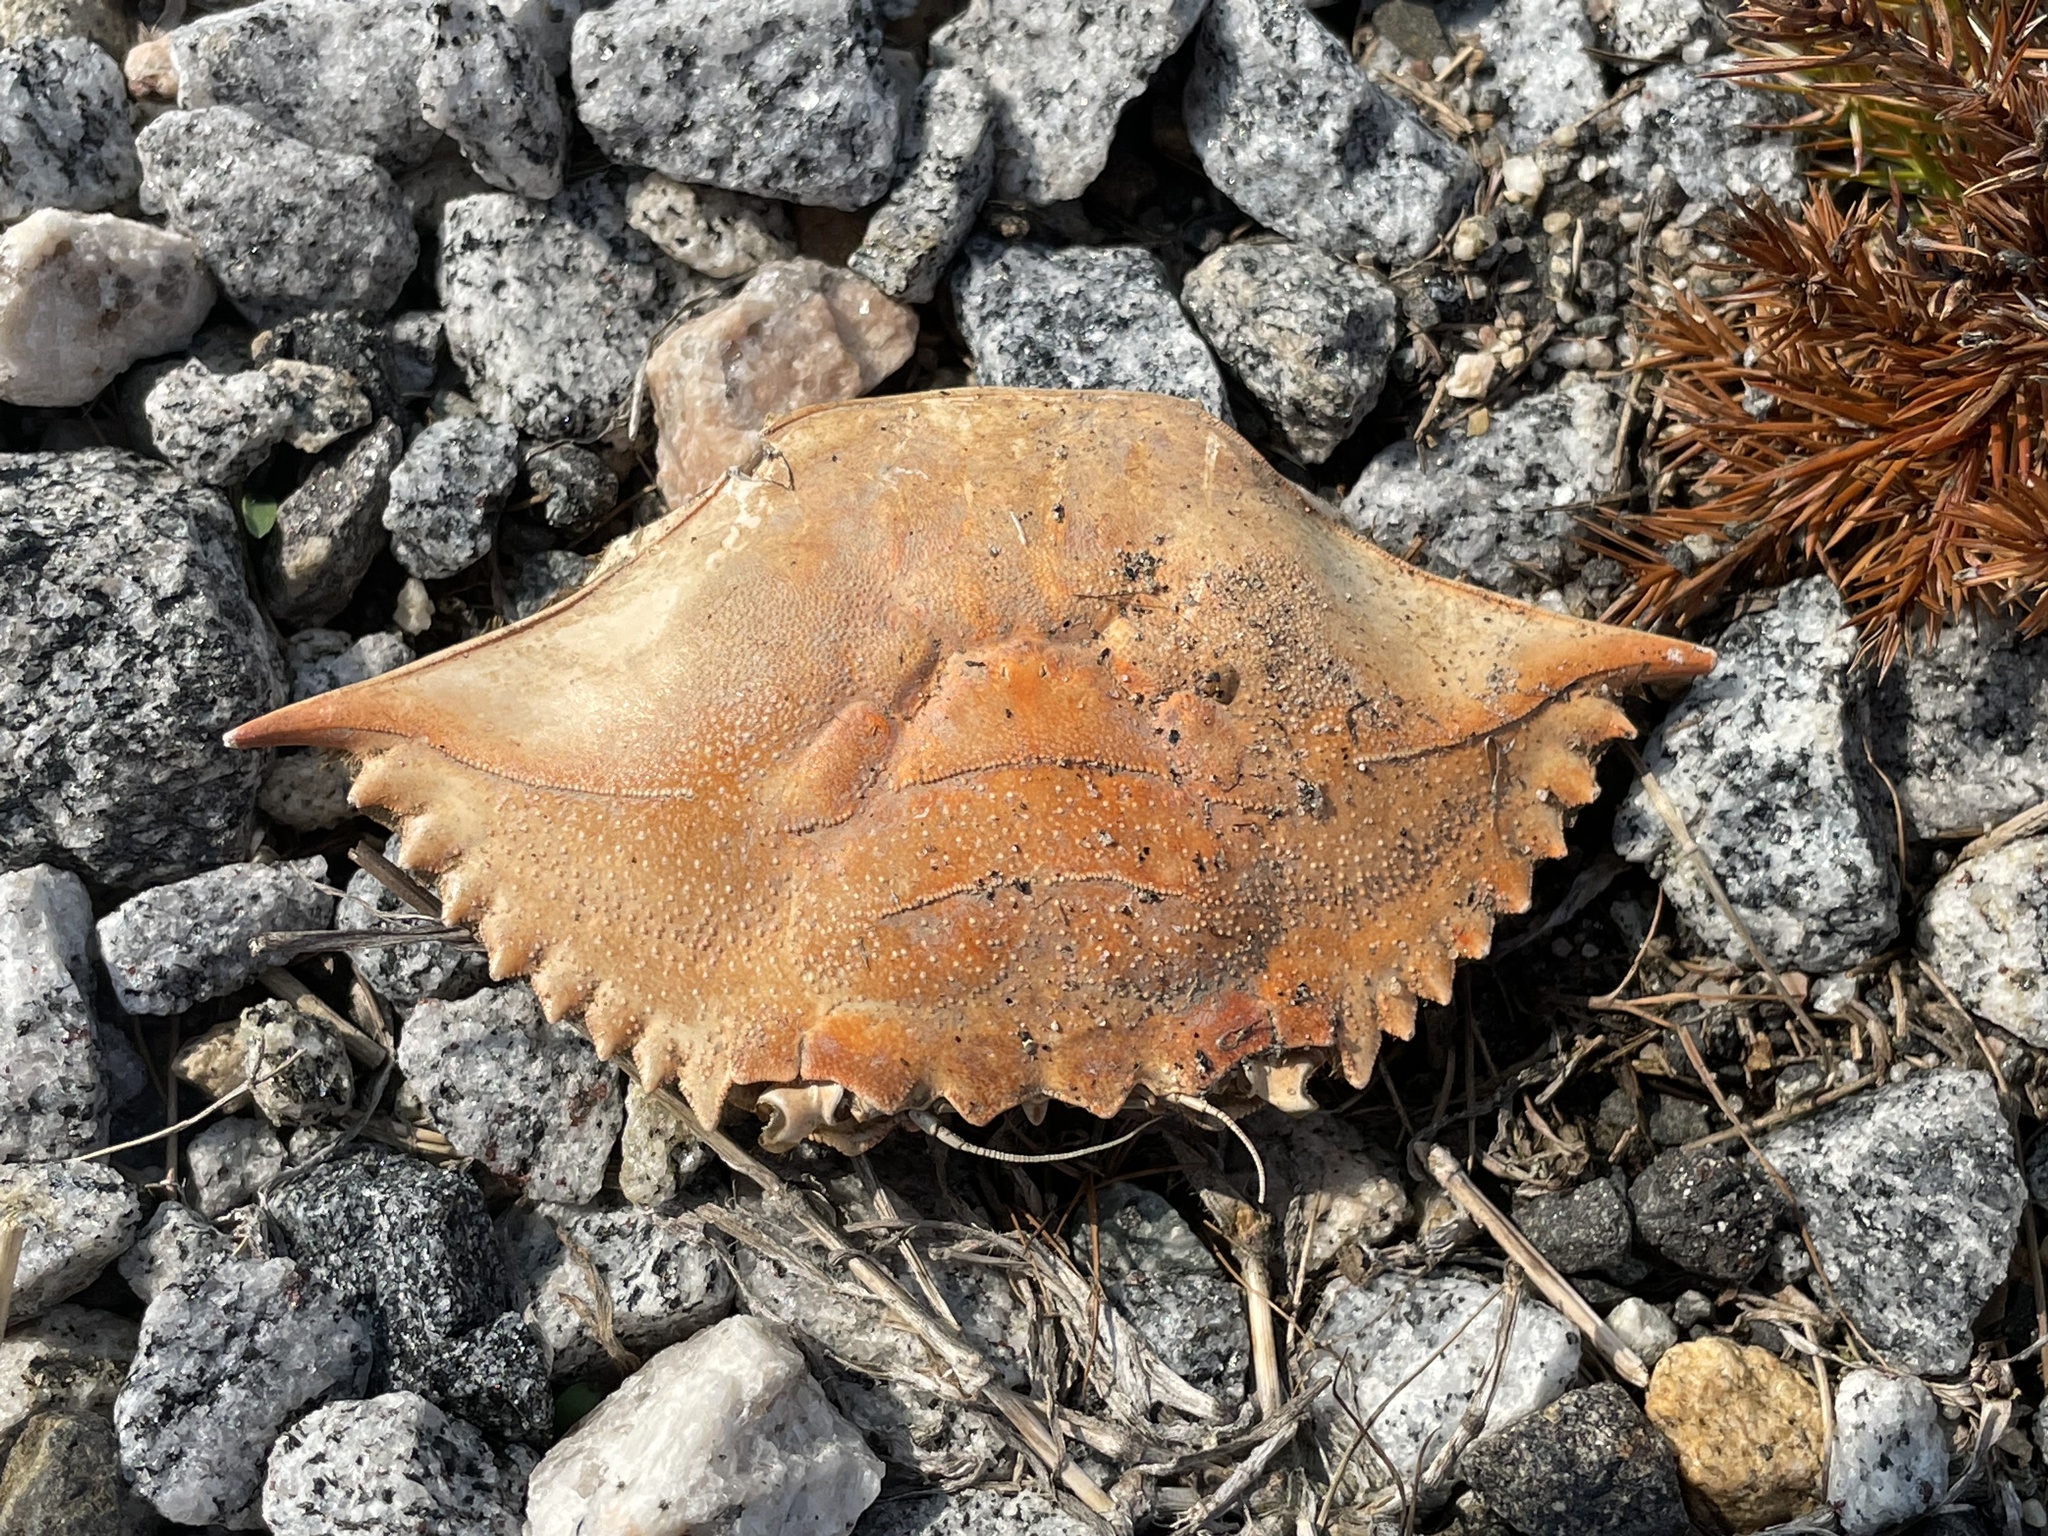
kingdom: Animalia
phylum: Arthropoda
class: Malacostraca
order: Decapoda
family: Portunidae
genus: Callinectes
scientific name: Callinectes sapidus
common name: Blue crab
